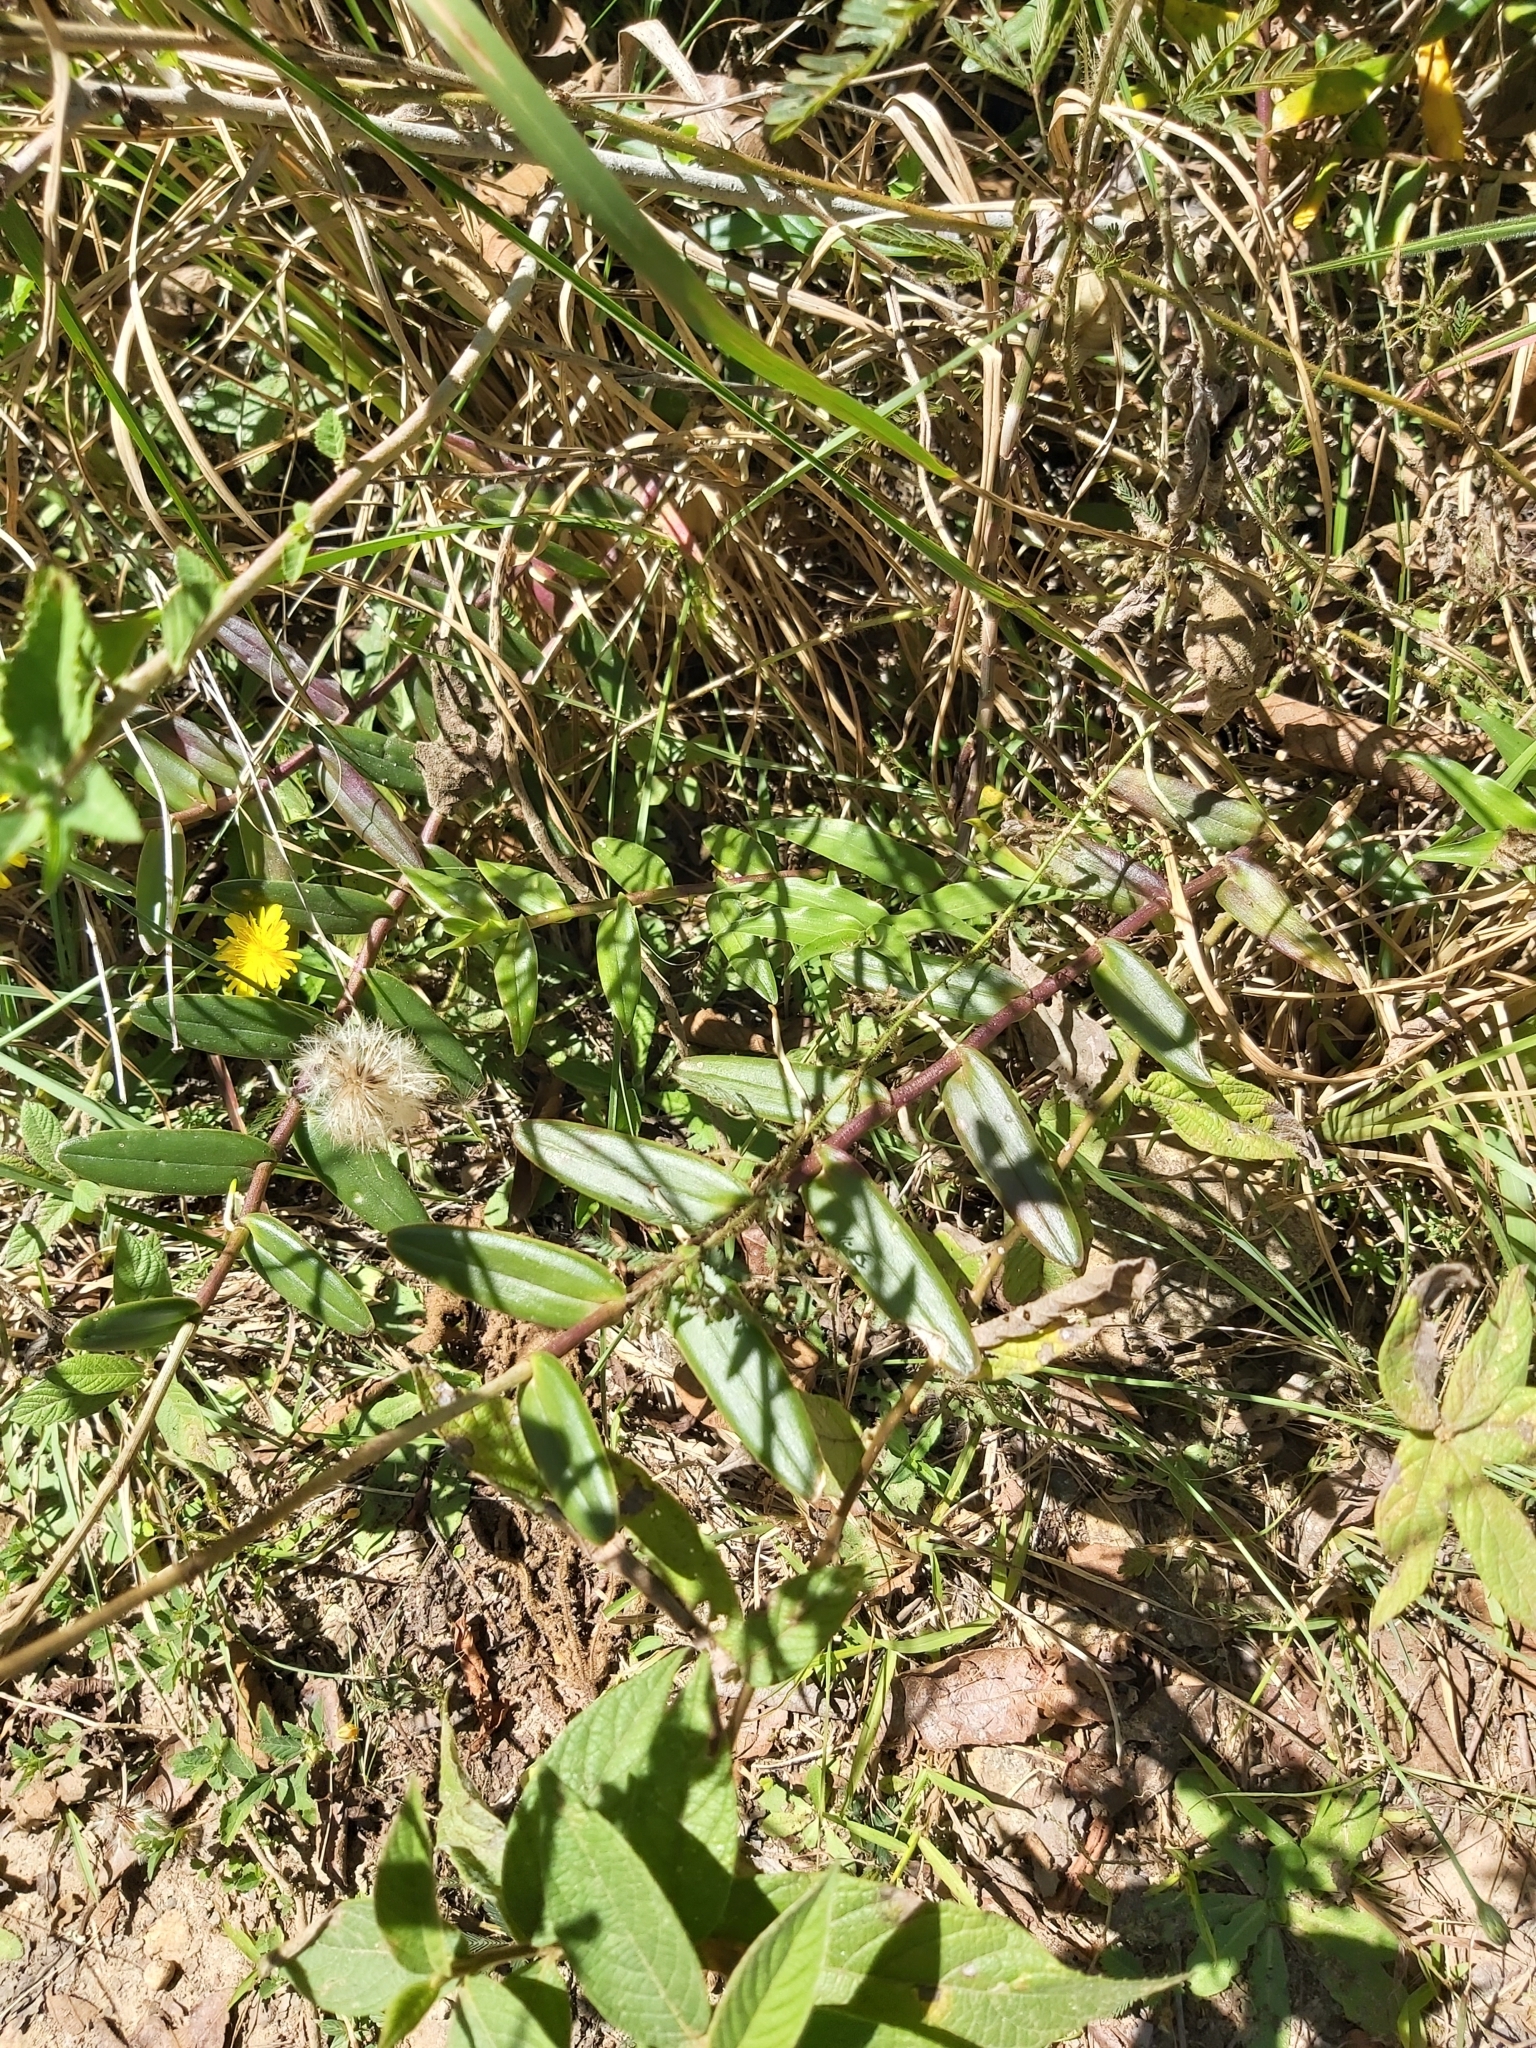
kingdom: Plantae
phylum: Tracheophyta
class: Liliopsida
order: Asparagales
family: Orchidaceae
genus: Epidendrum
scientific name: Epidendrum radicans
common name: Fire star orchid
